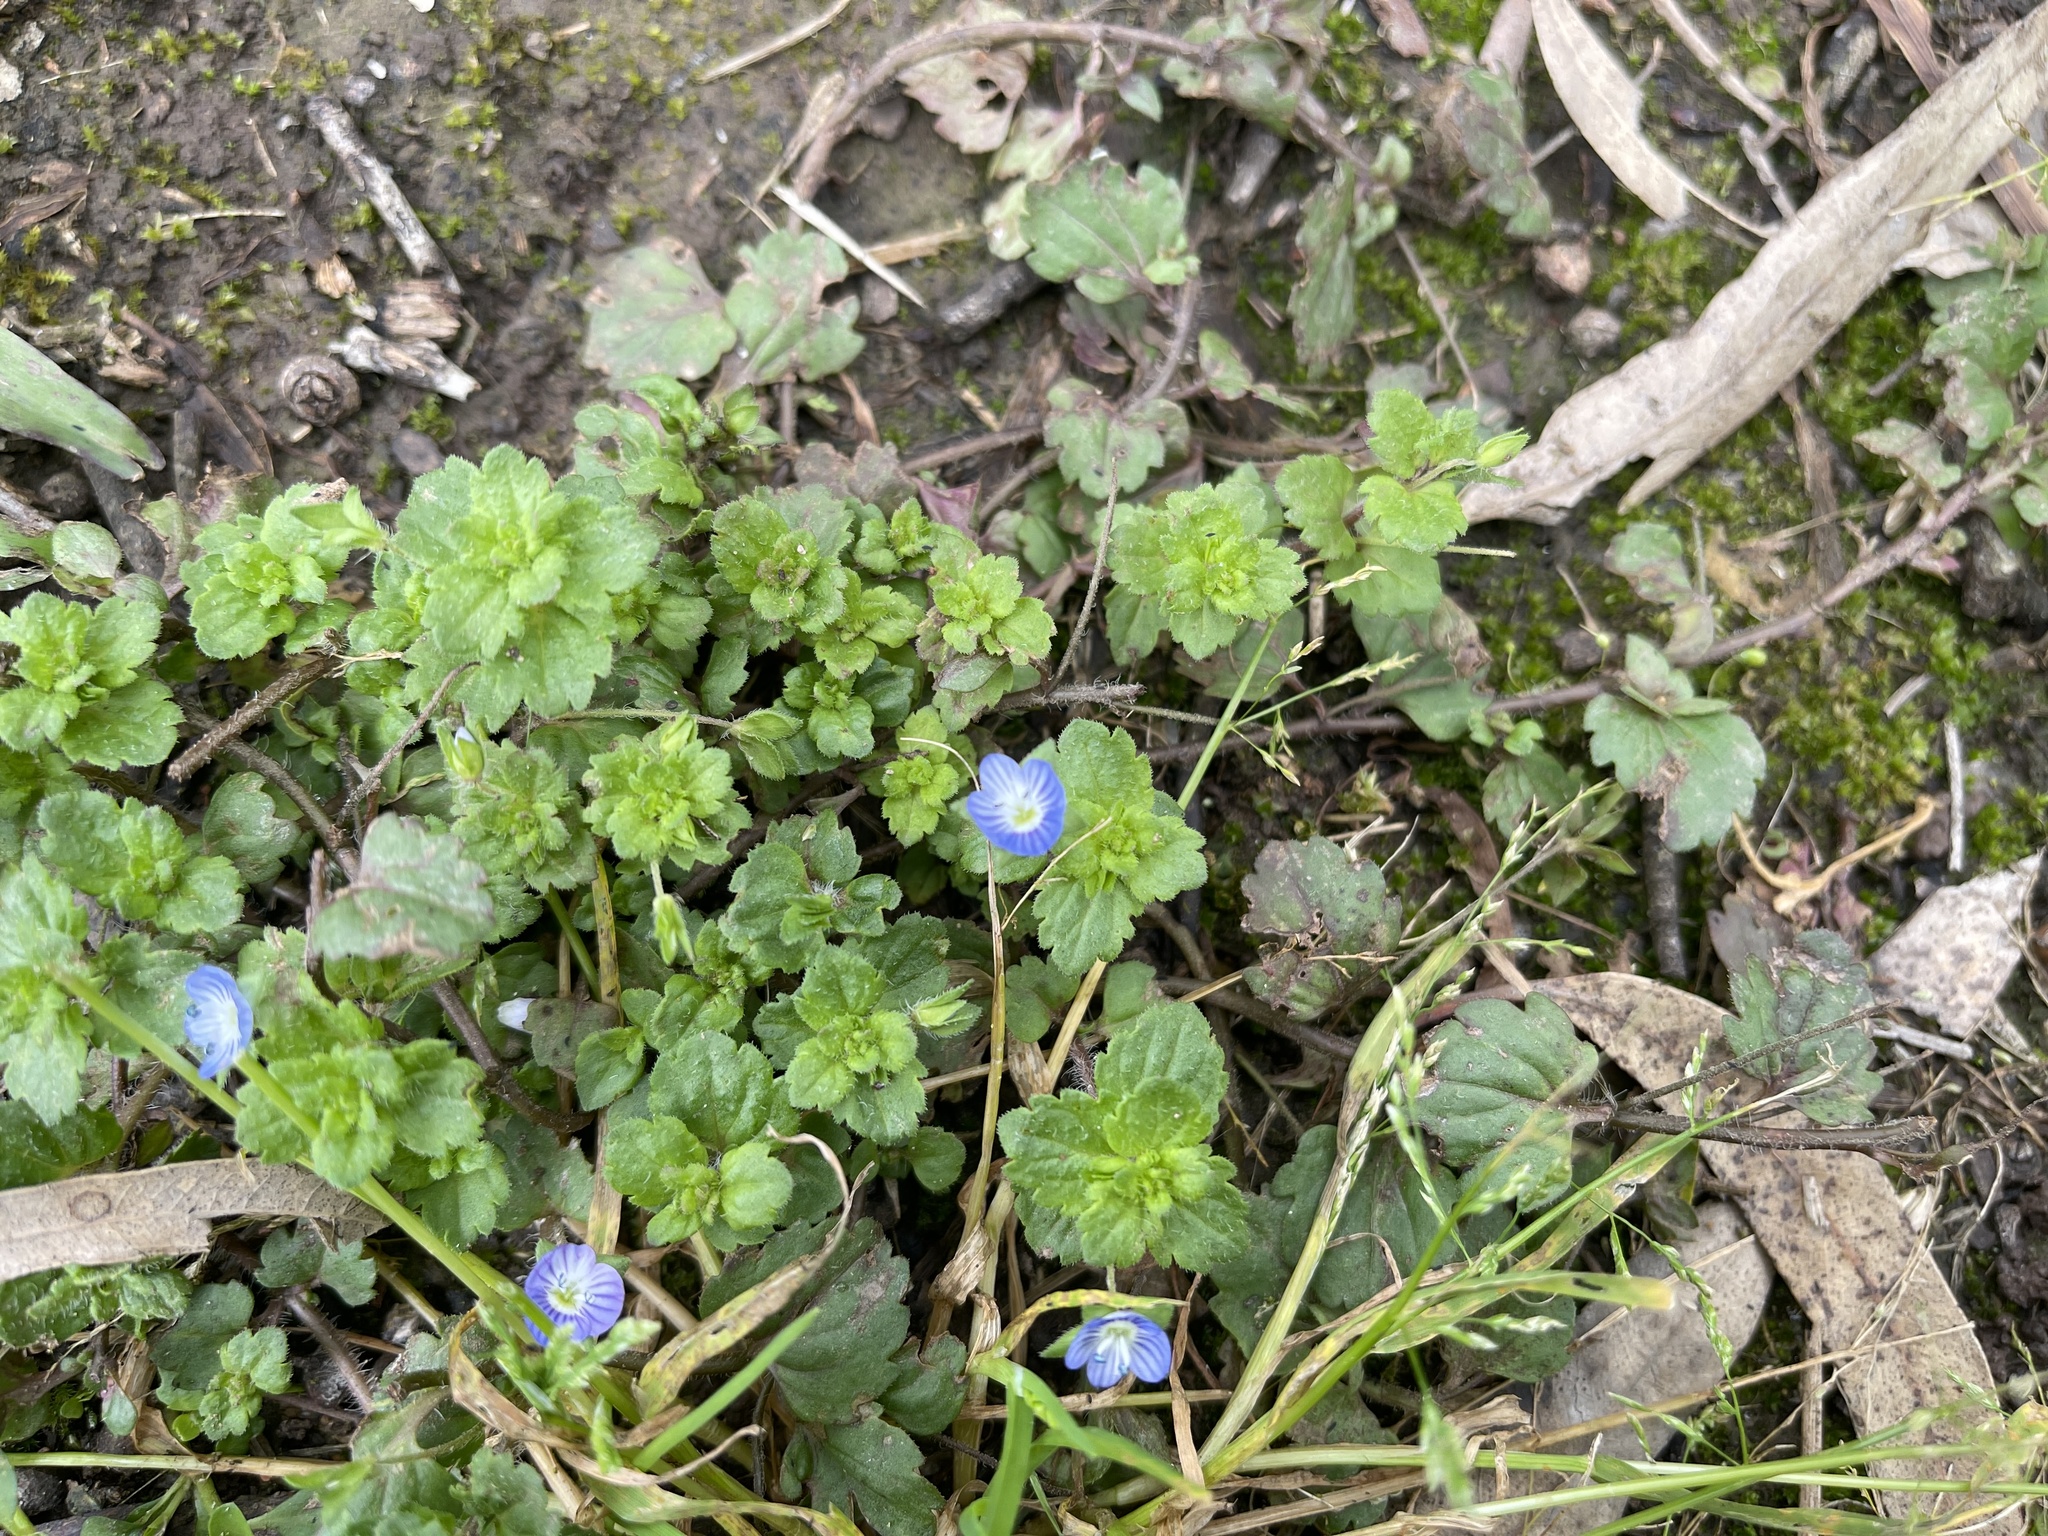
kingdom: Plantae
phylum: Tracheophyta
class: Magnoliopsida
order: Lamiales
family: Plantaginaceae
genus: Veronica
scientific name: Veronica persica
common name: Common field-speedwell
